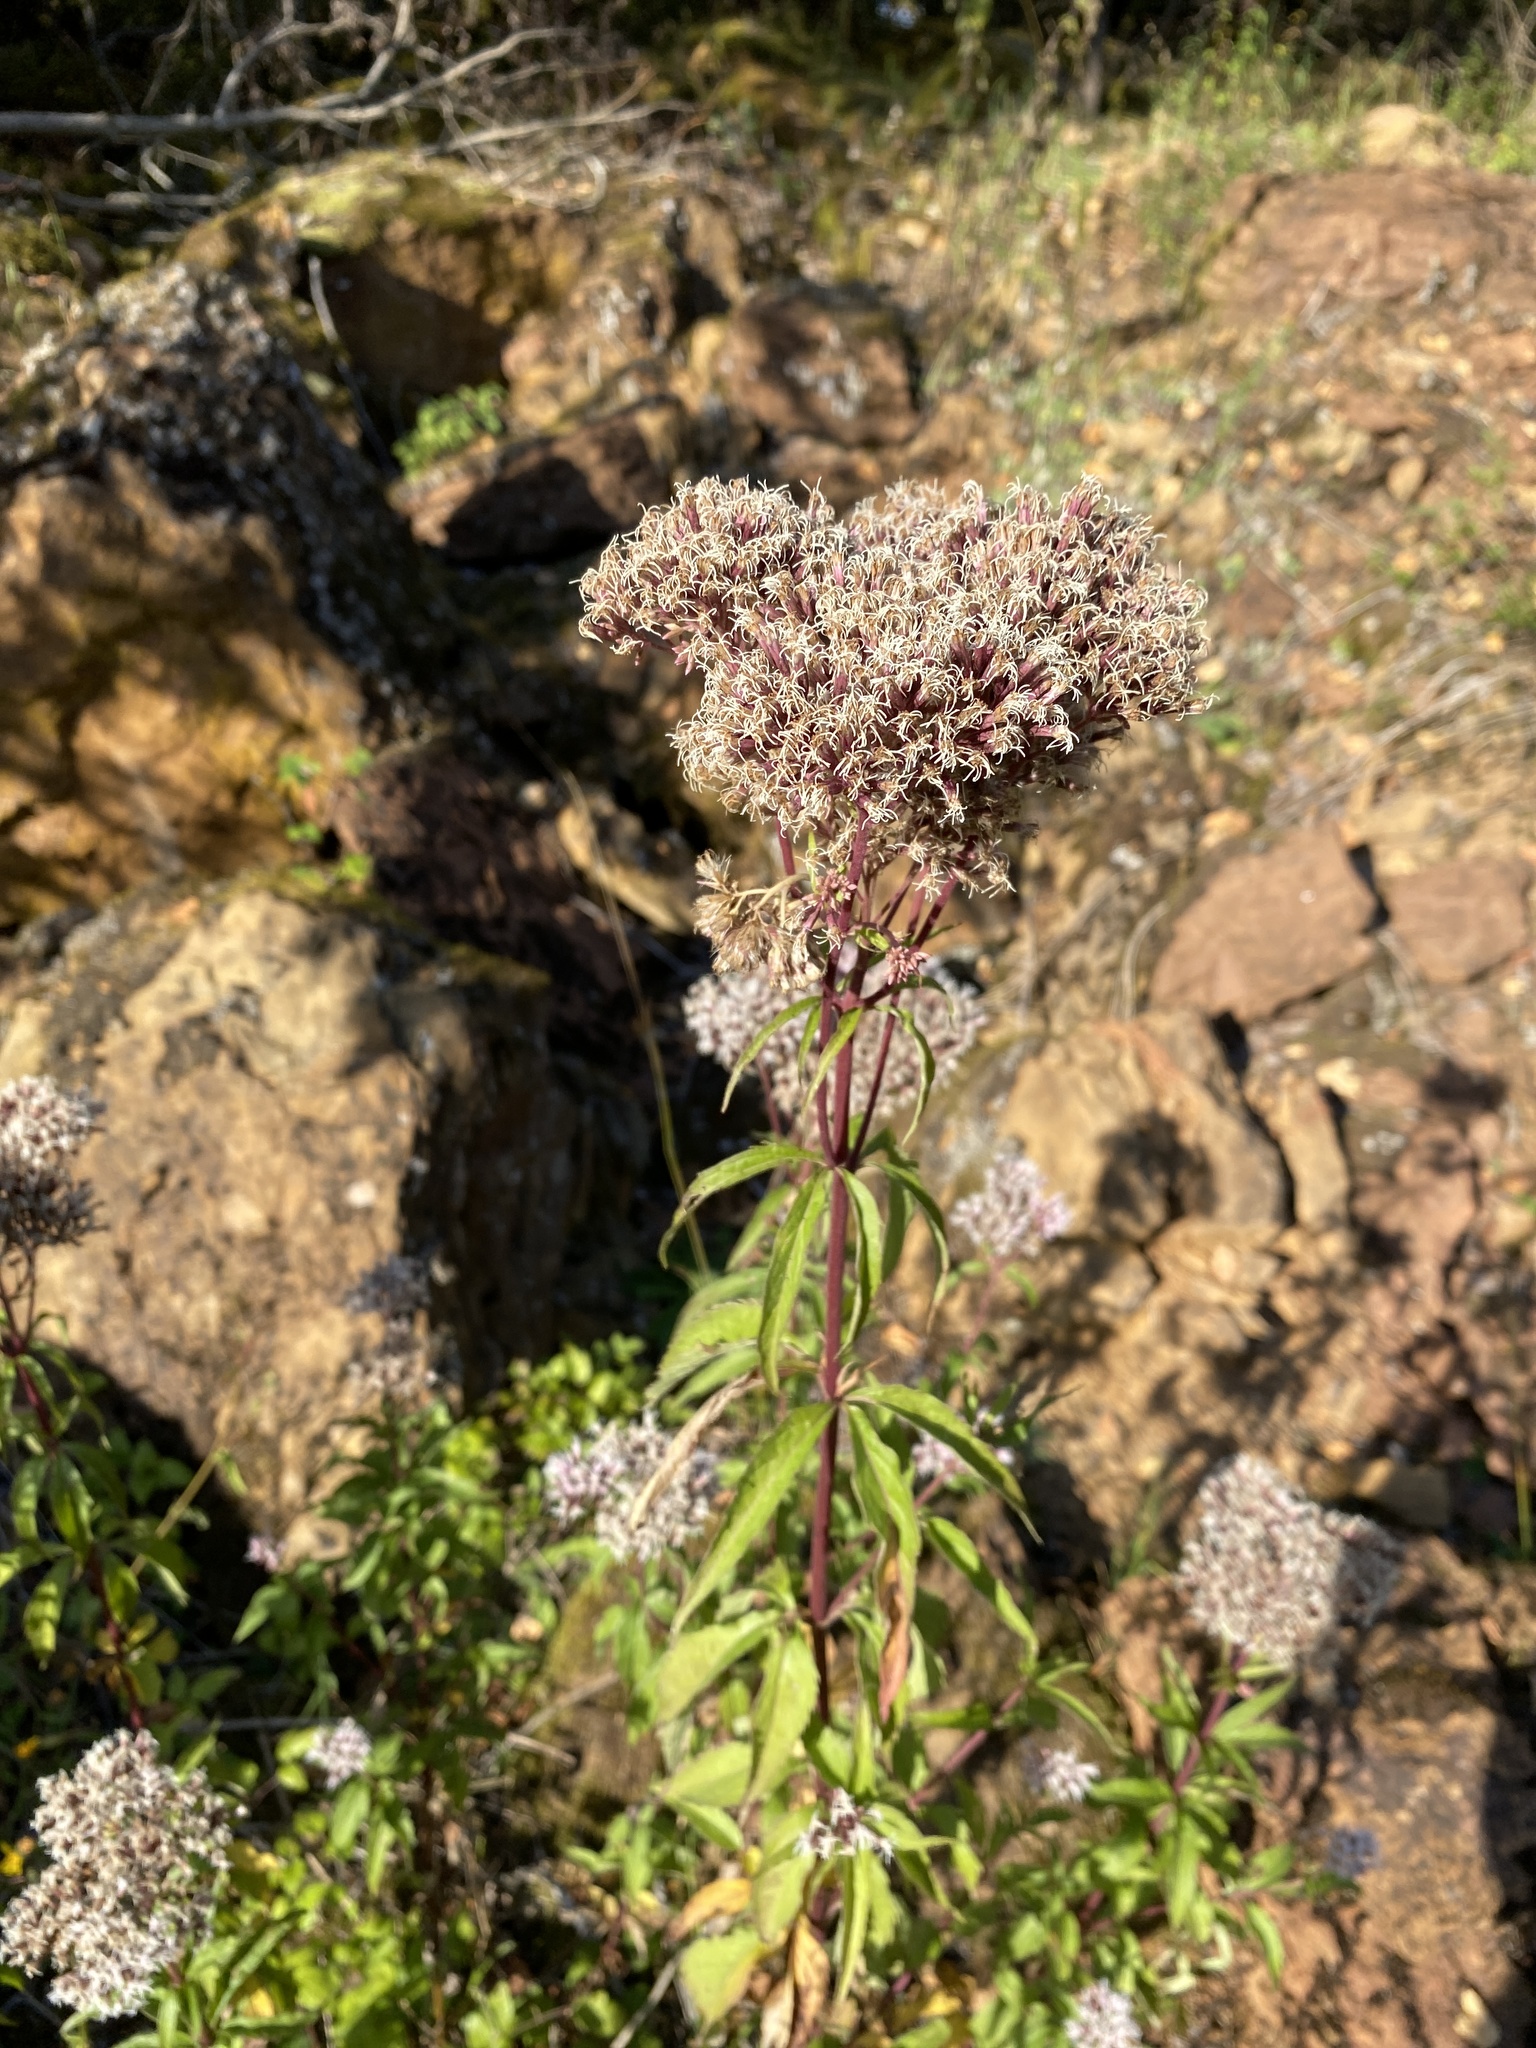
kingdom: Plantae
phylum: Tracheophyta
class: Magnoliopsida
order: Asterales
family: Asteraceae
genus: Eupatorium
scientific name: Eupatorium cannabinum
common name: Hemp-agrimony
